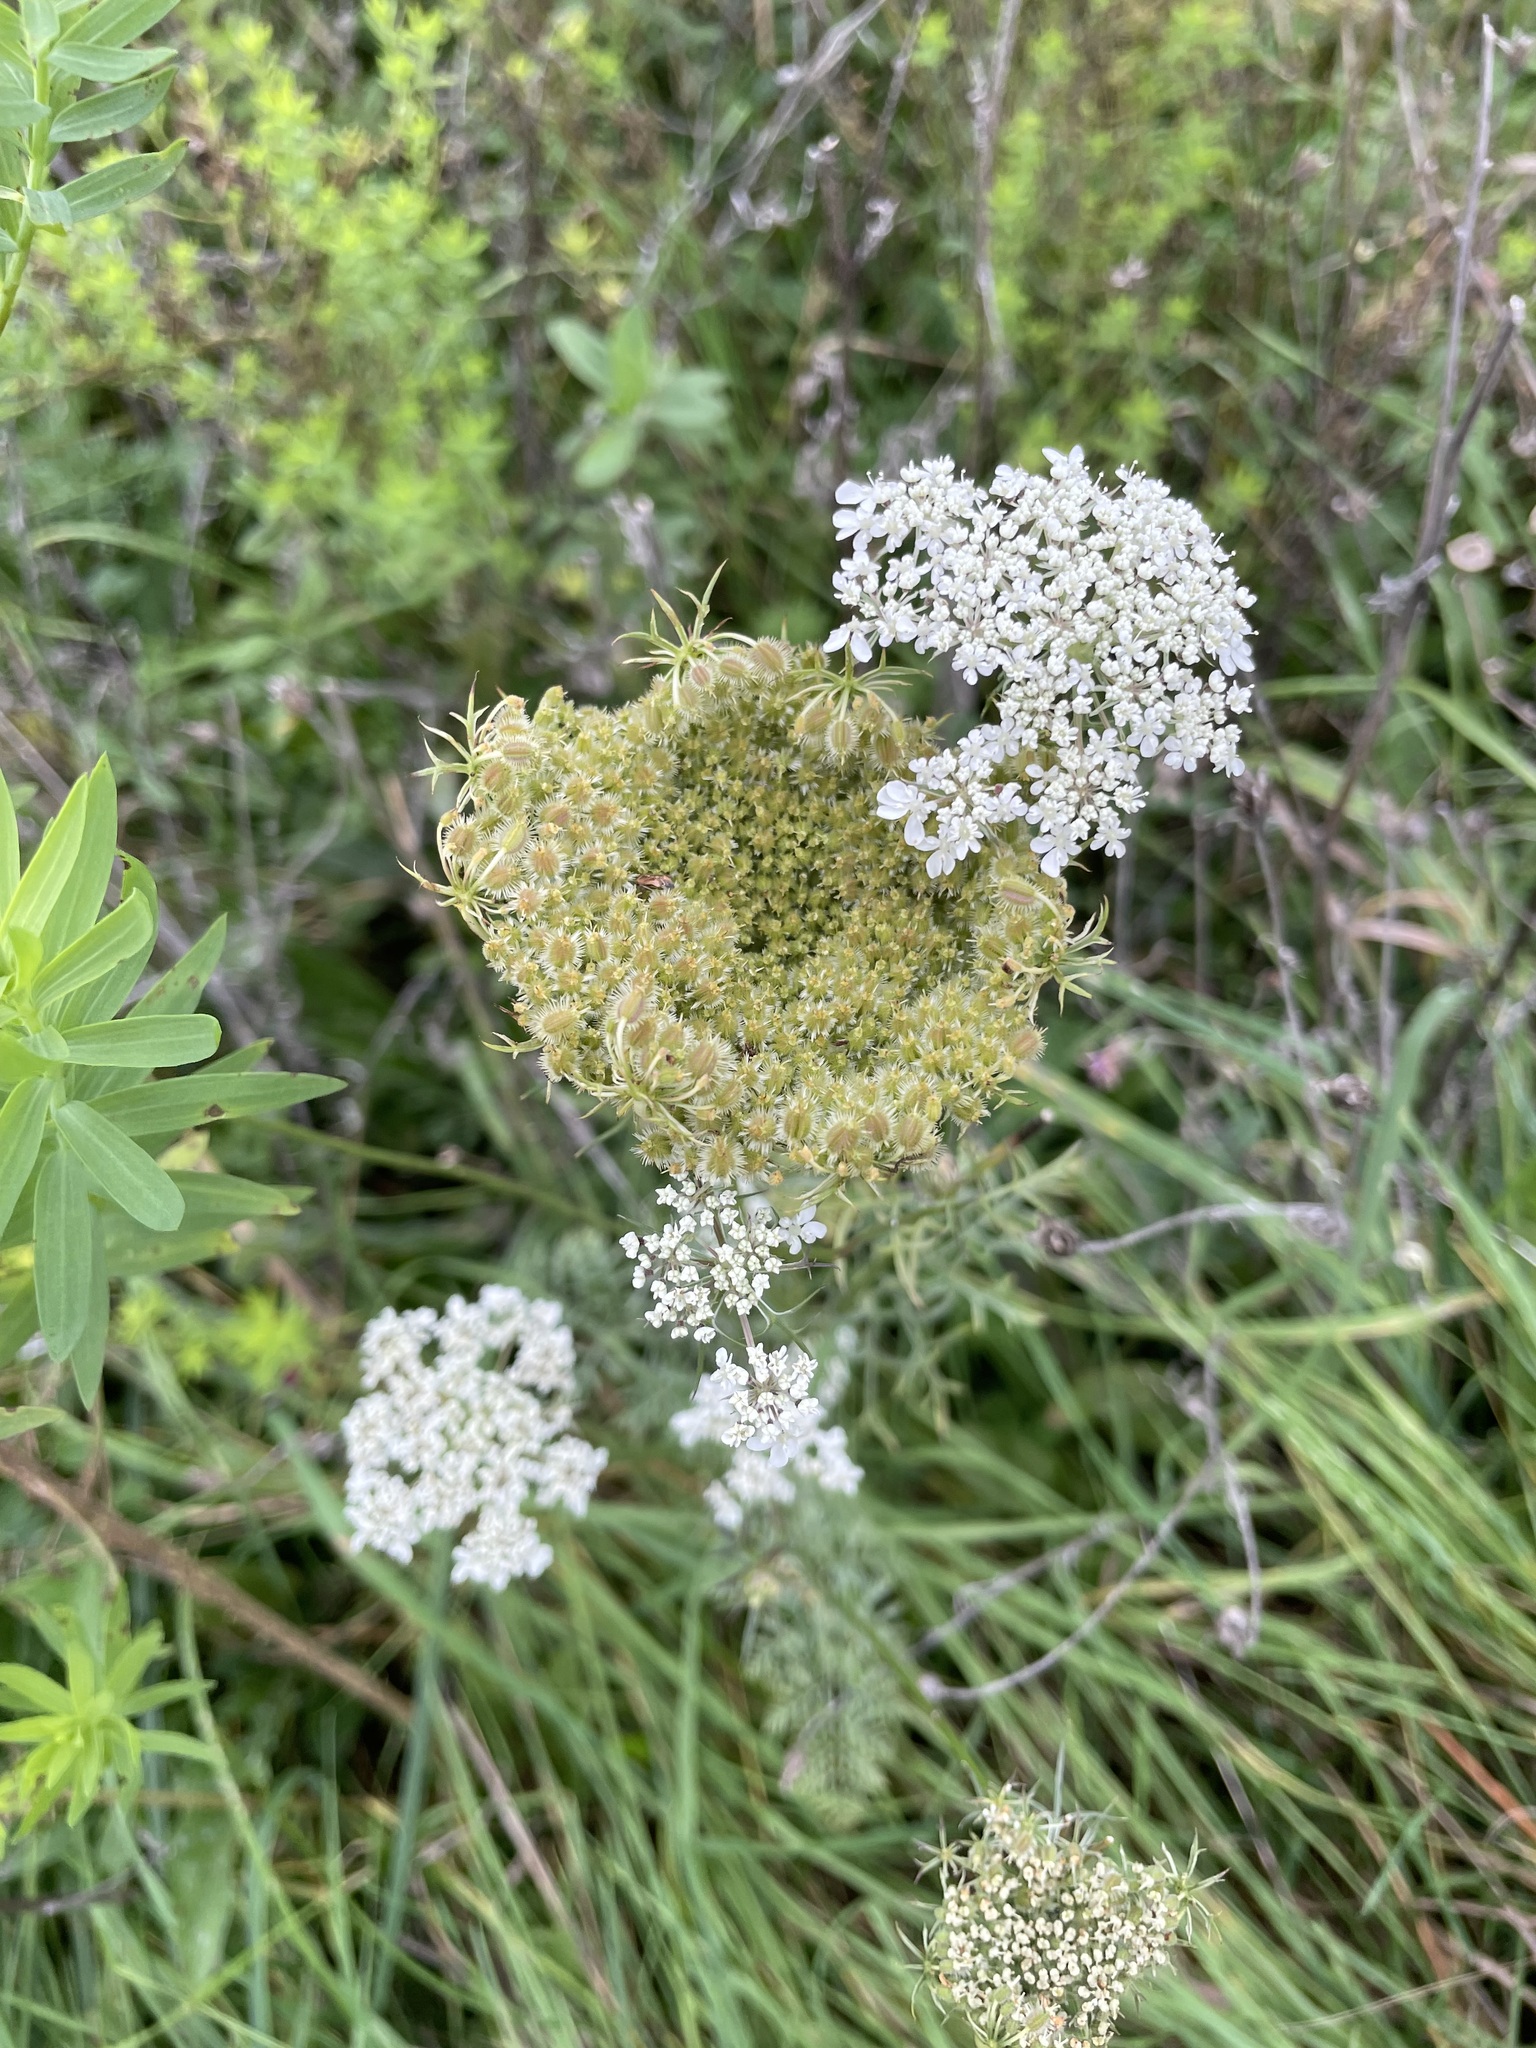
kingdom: Plantae
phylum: Tracheophyta
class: Magnoliopsida
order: Apiales
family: Apiaceae
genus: Daucus
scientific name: Daucus carota
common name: Wild carrot
